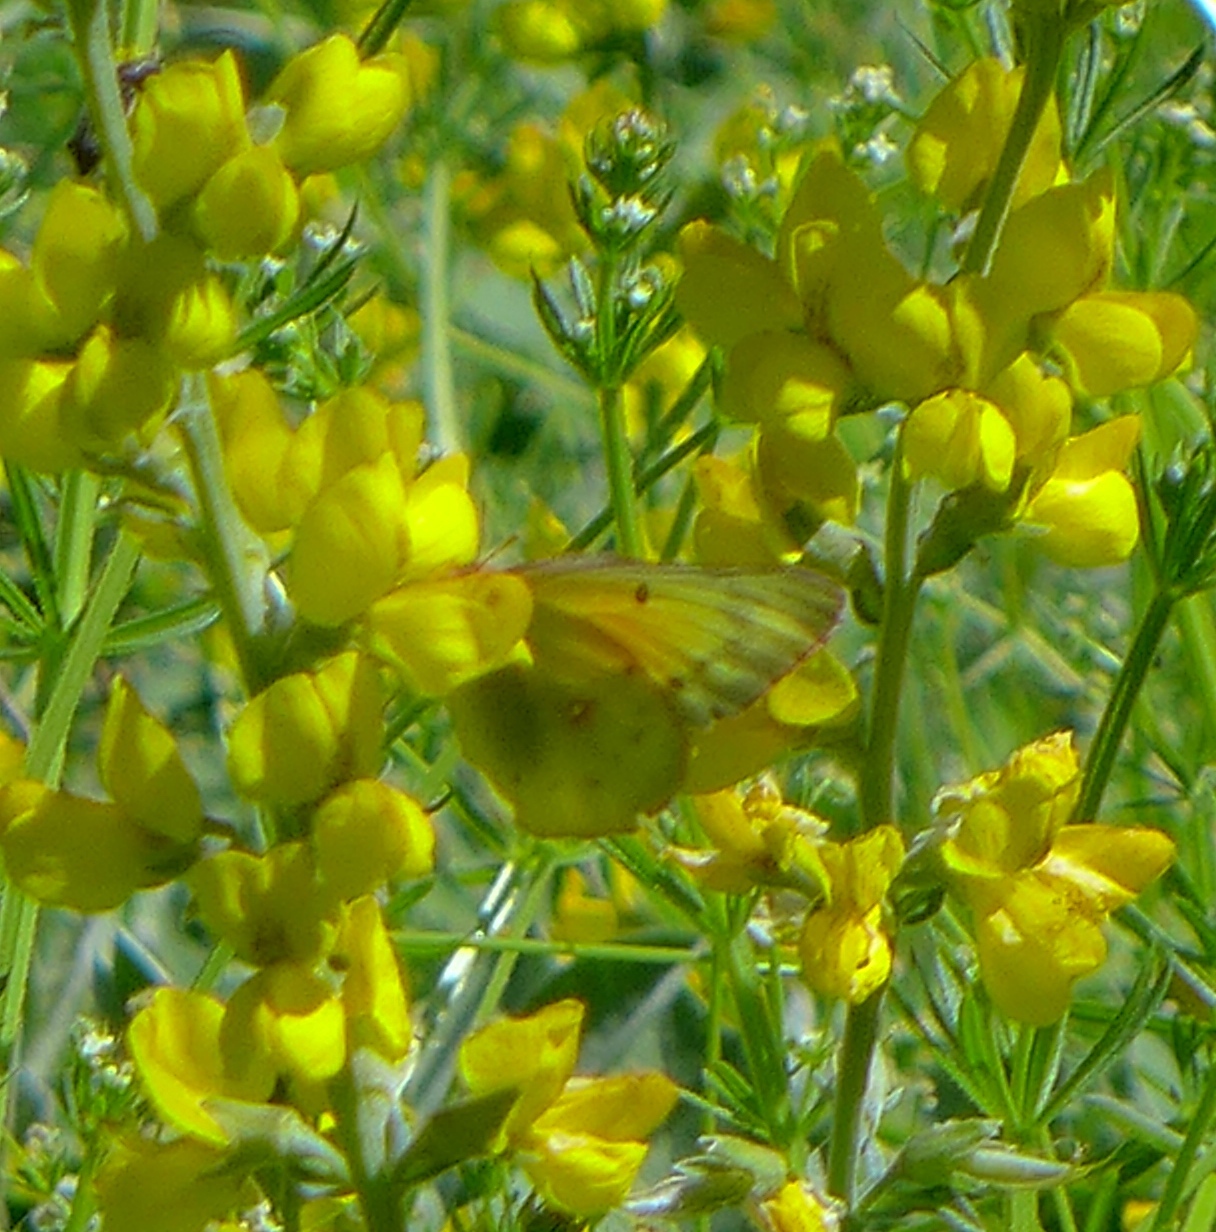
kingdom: Animalia
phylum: Arthropoda
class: Insecta
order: Lepidoptera
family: Pieridae
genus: Colias
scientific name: Colias eurytheme
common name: Alfalfa butterfly
